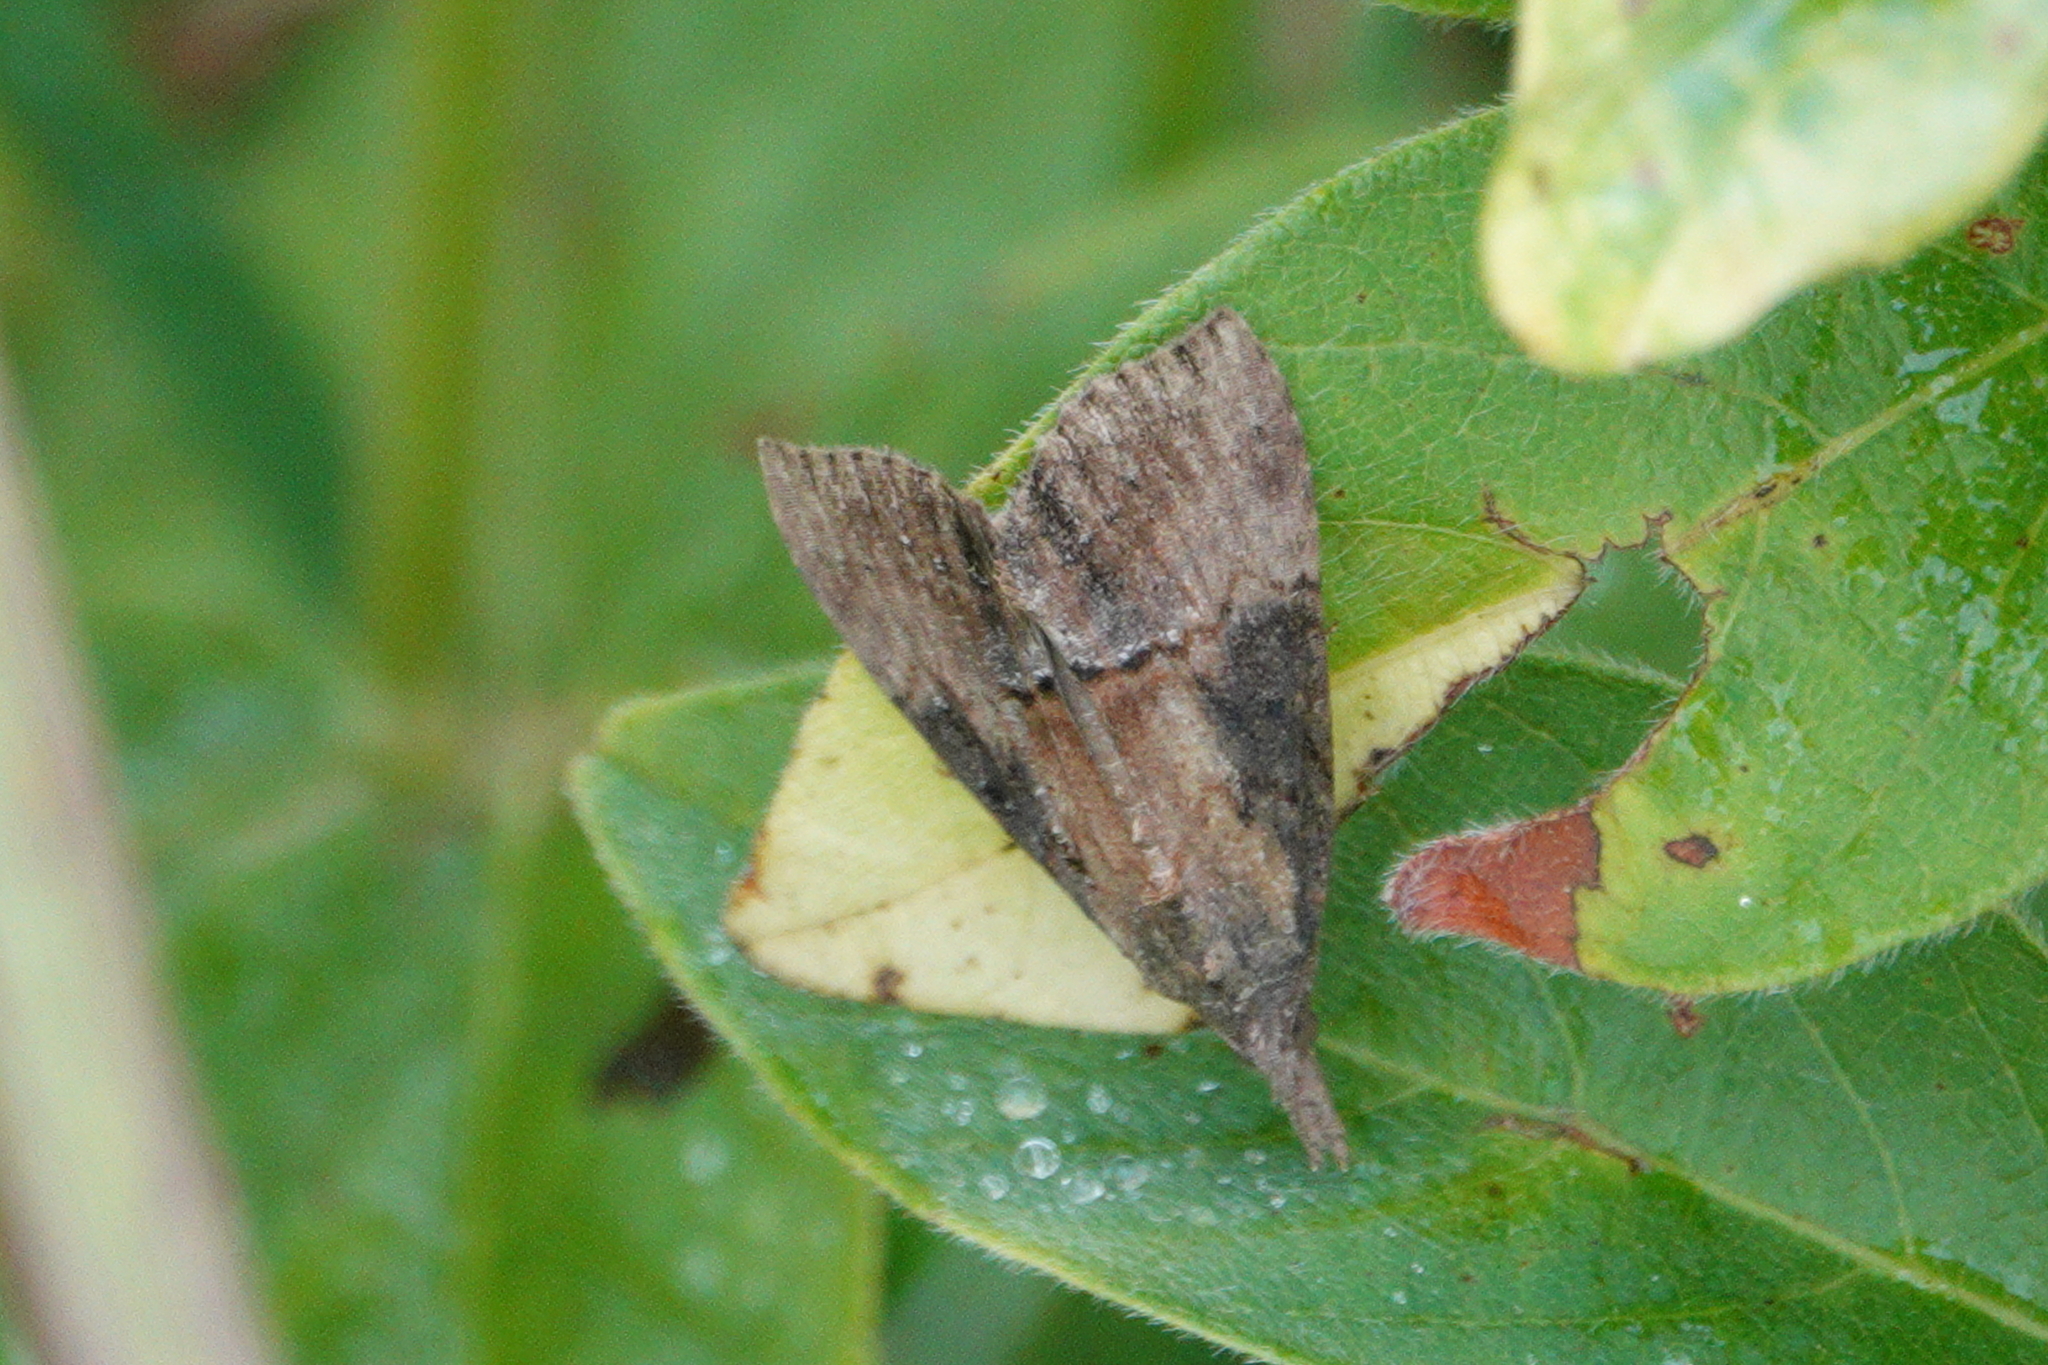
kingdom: Animalia
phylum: Arthropoda
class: Insecta
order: Lepidoptera
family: Erebidae
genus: Hypena
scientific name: Hypena scabra
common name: Green cloverworm
